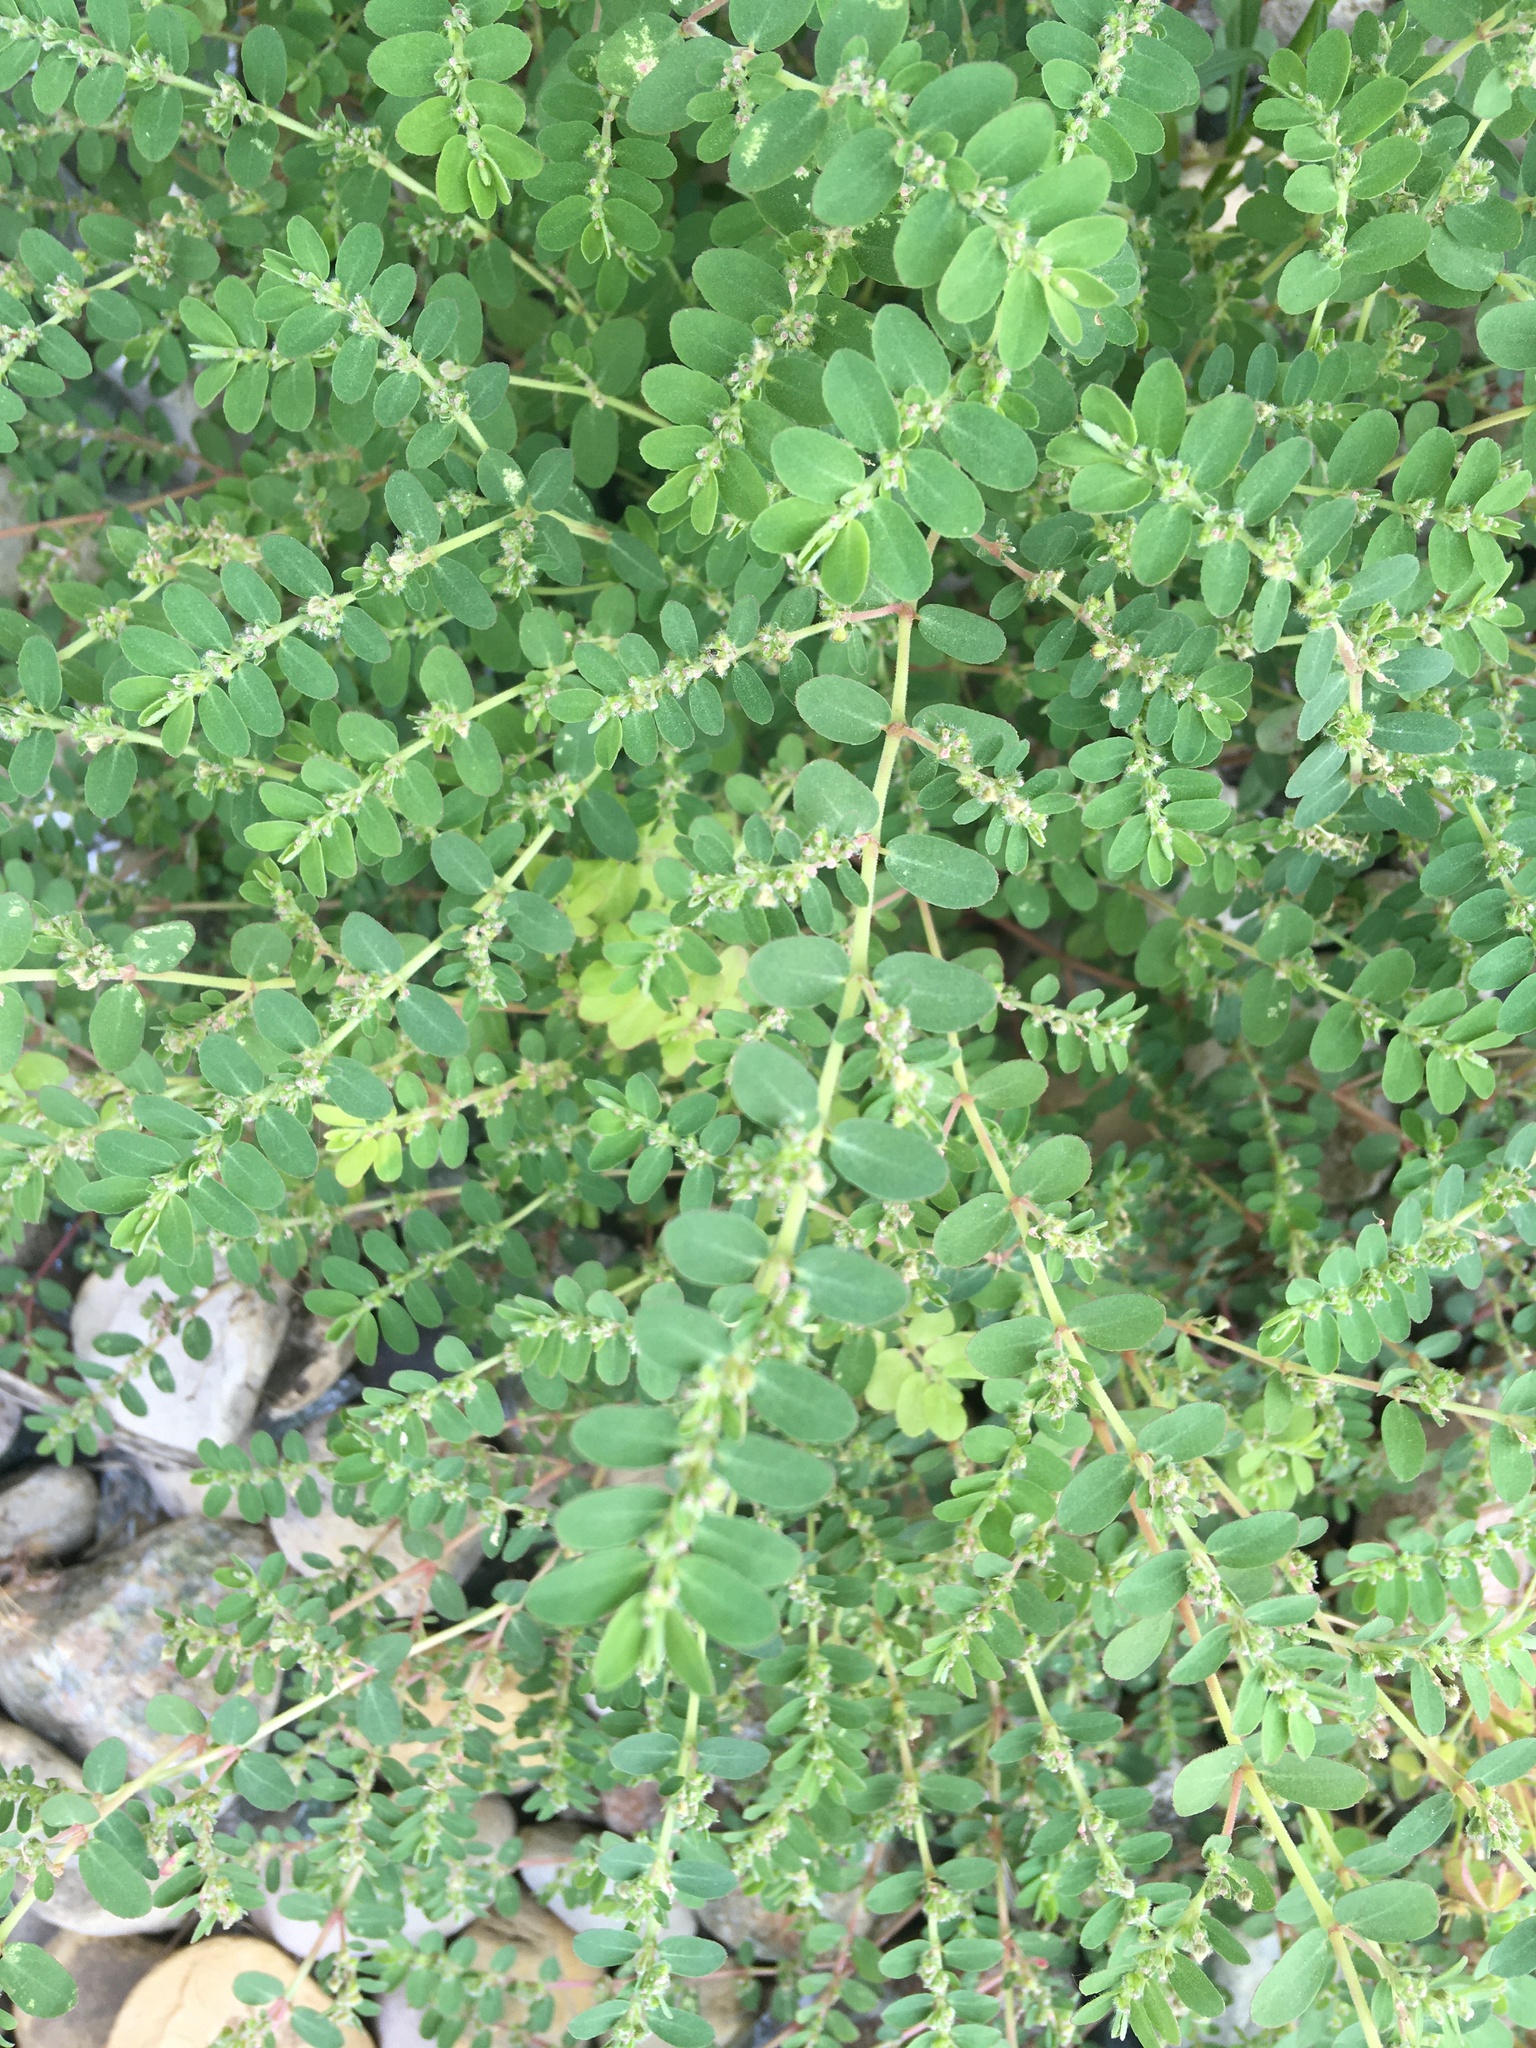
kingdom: Plantae
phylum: Tracheophyta
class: Magnoliopsida
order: Malpighiales
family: Euphorbiaceae
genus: Euphorbia
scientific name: Euphorbia prostrata
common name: Prostrate sandmat
